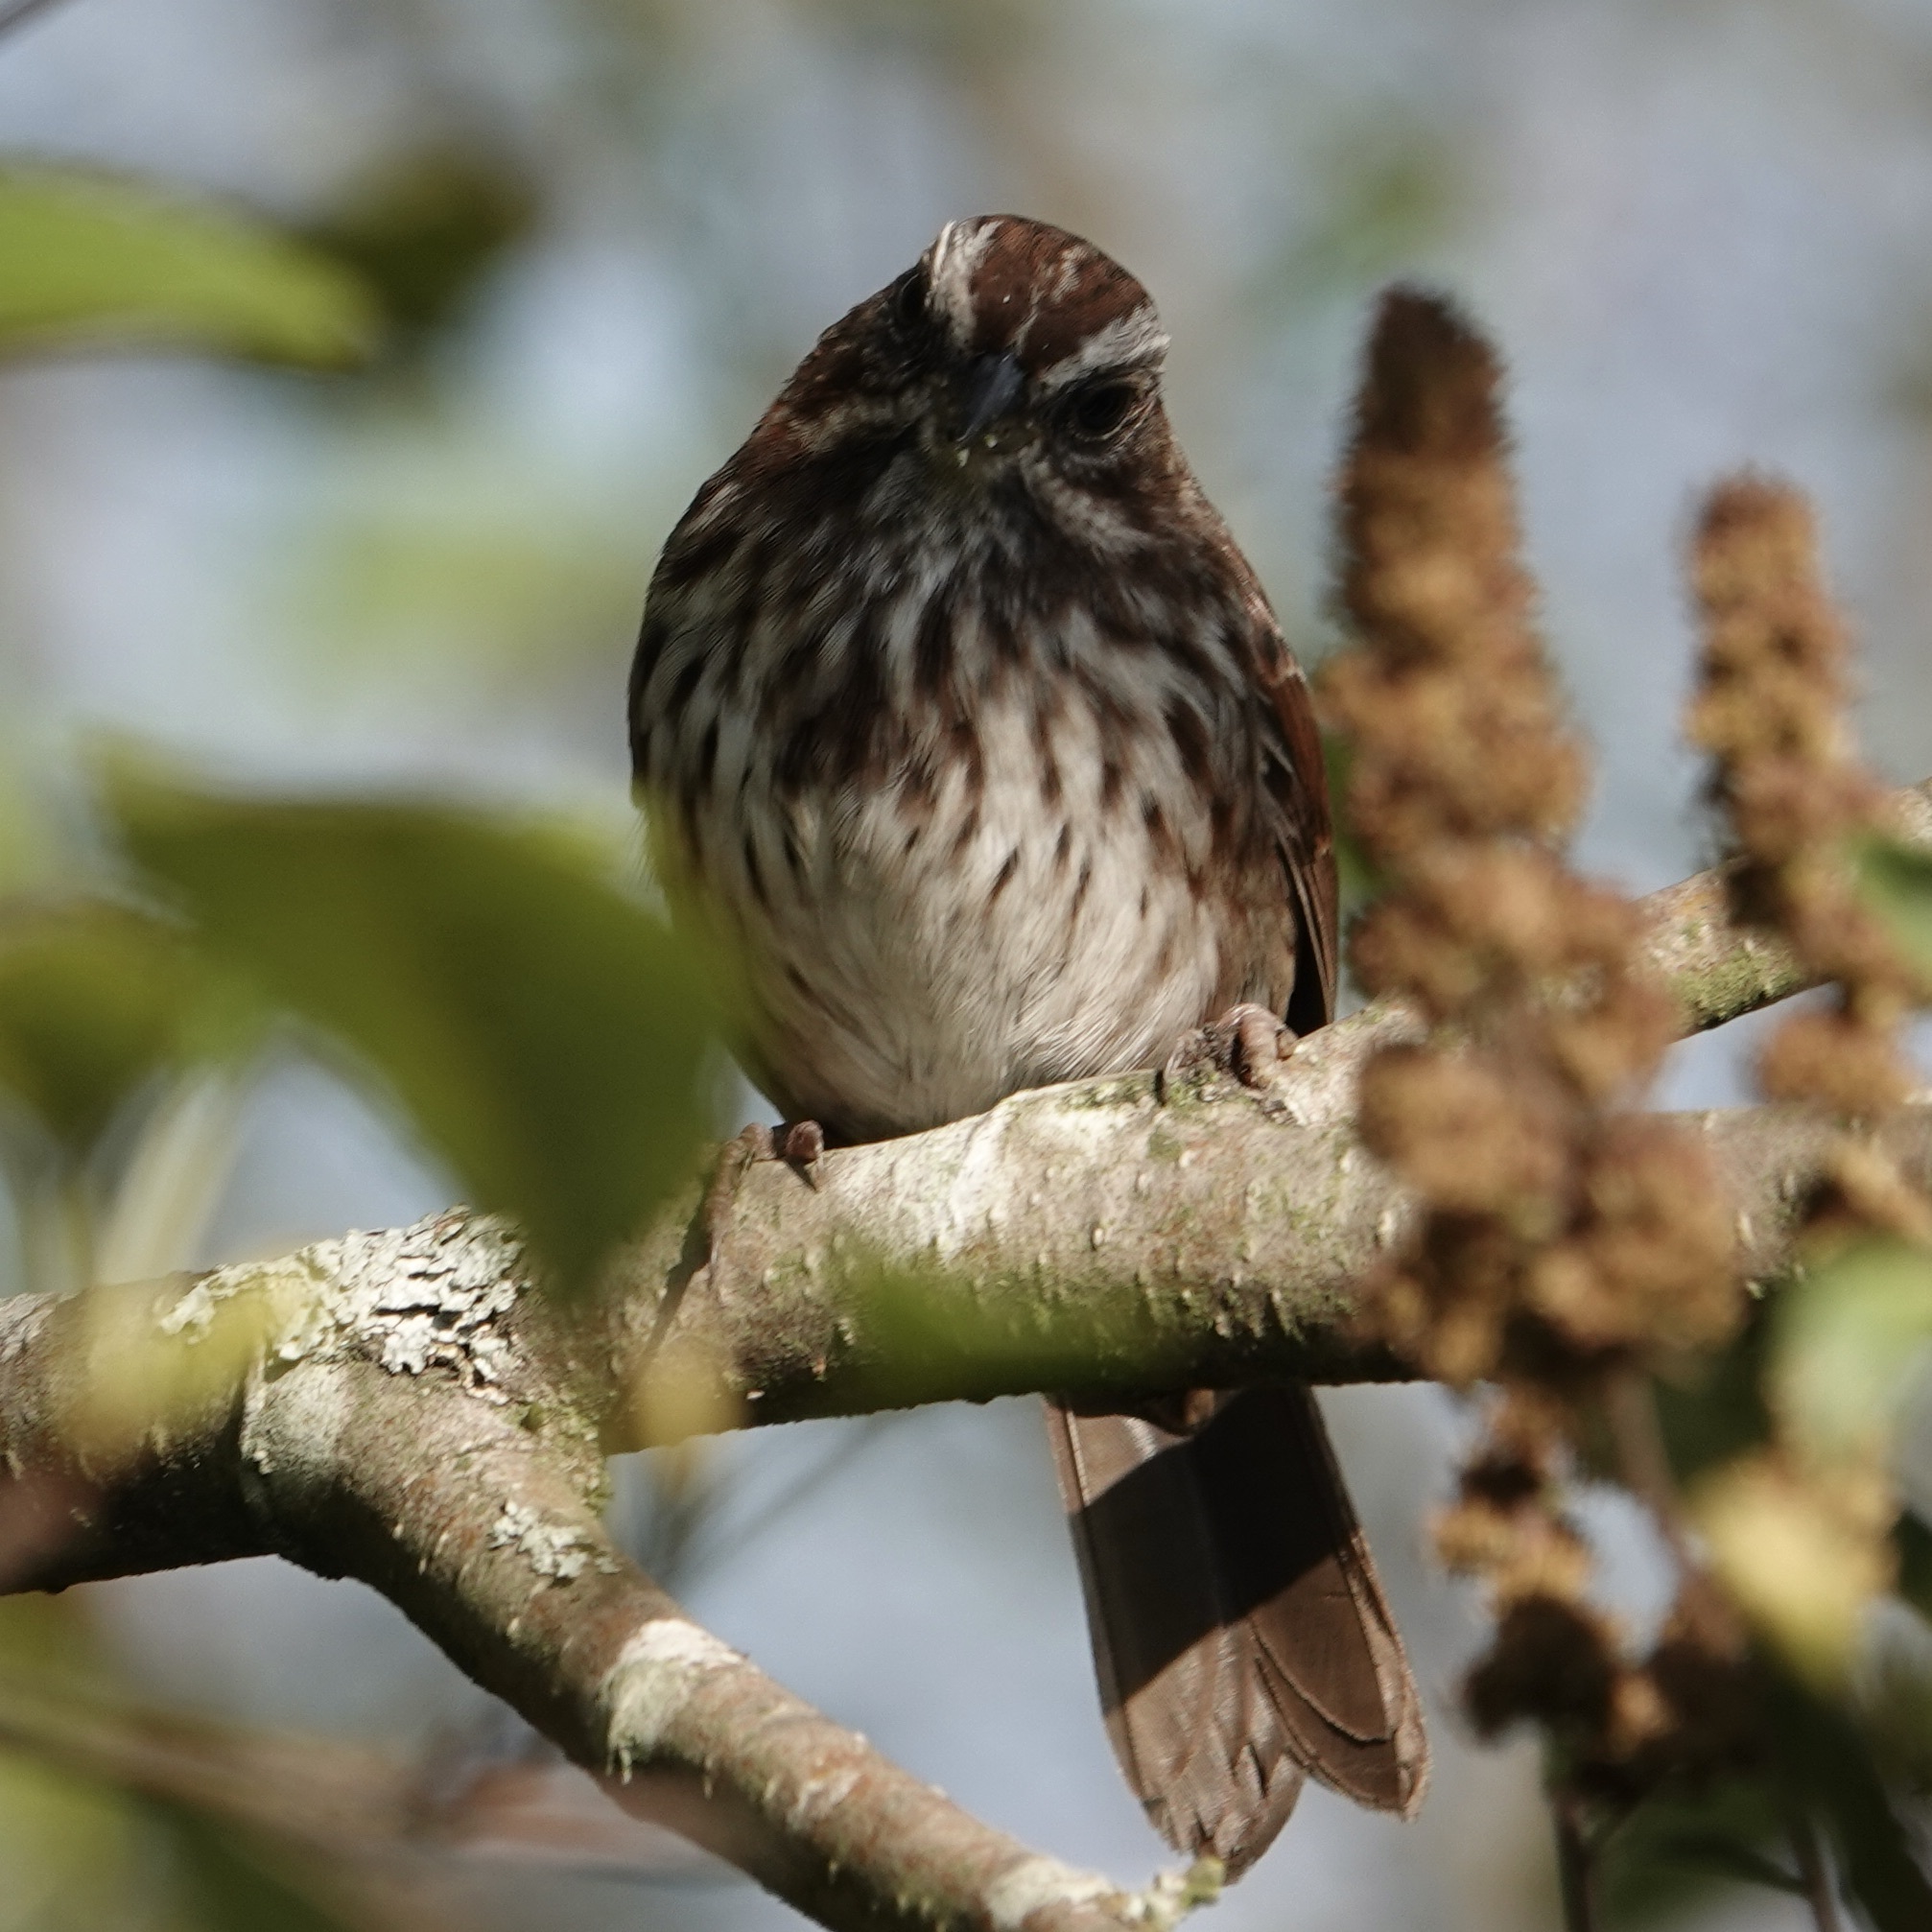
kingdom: Animalia
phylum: Chordata
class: Aves
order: Passeriformes
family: Passerellidae
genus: Melospiza
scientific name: Melospiza melodia
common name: Song sparrow
